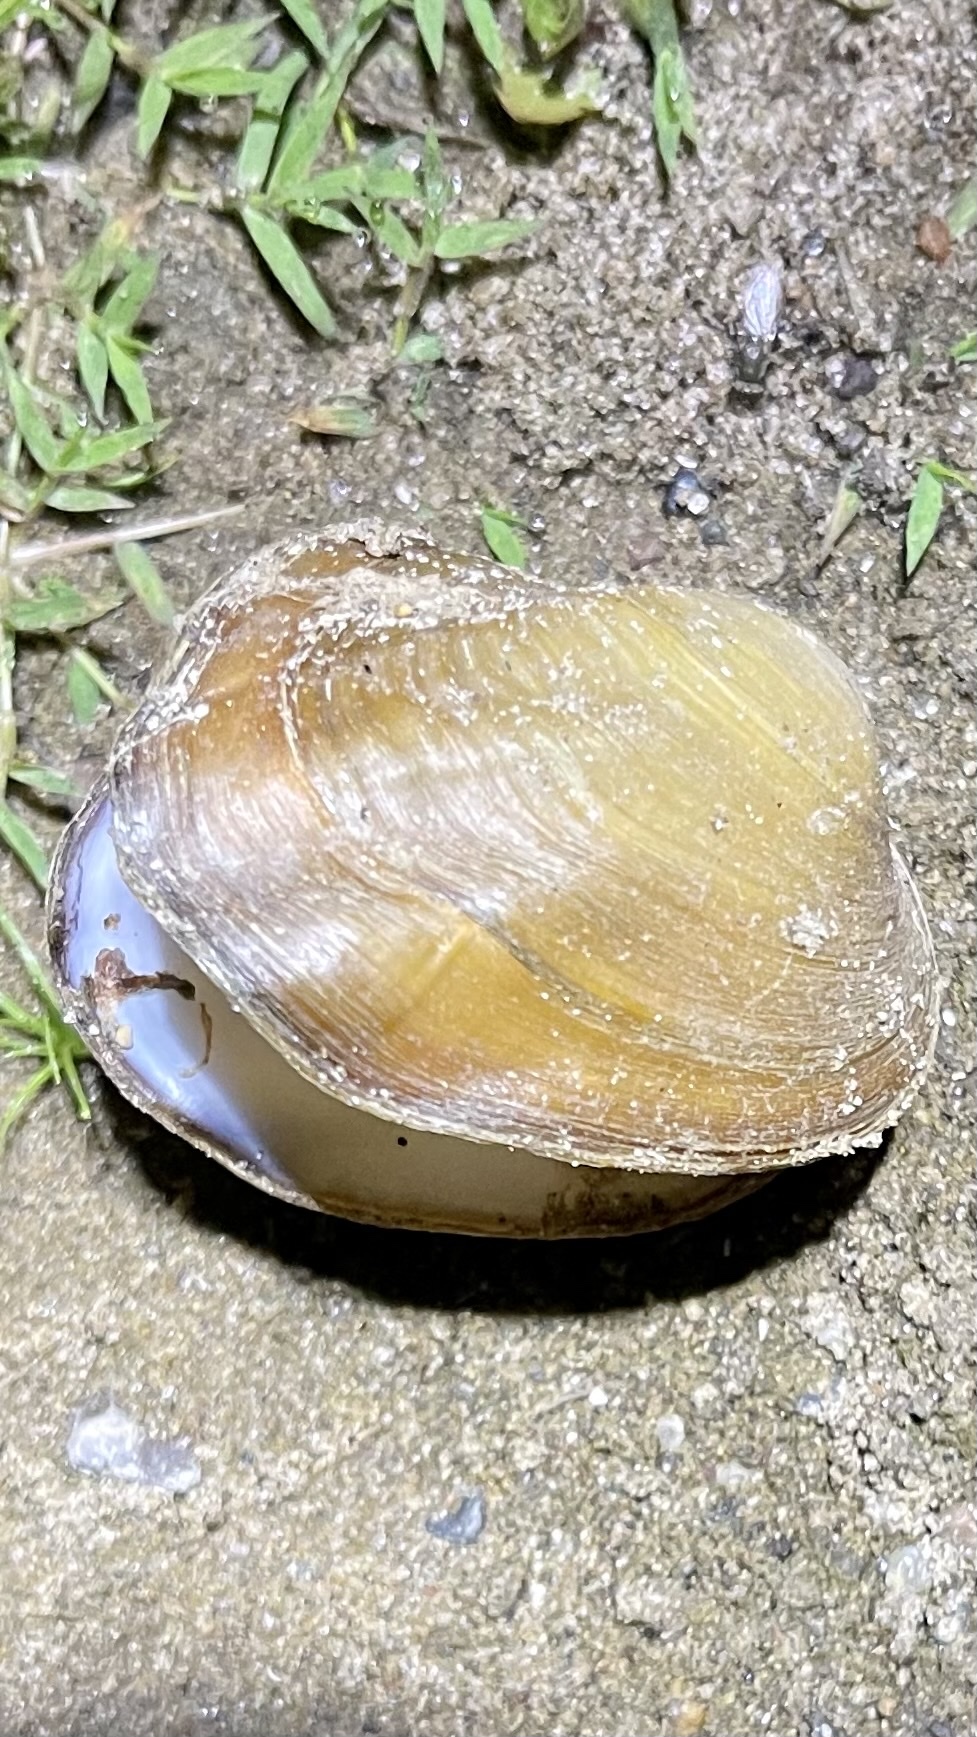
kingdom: Animalia
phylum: Mollusca
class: Bivalvia
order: Unionida
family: Unionidae
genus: Amblema
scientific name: Amblema plicata
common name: Threeridge
